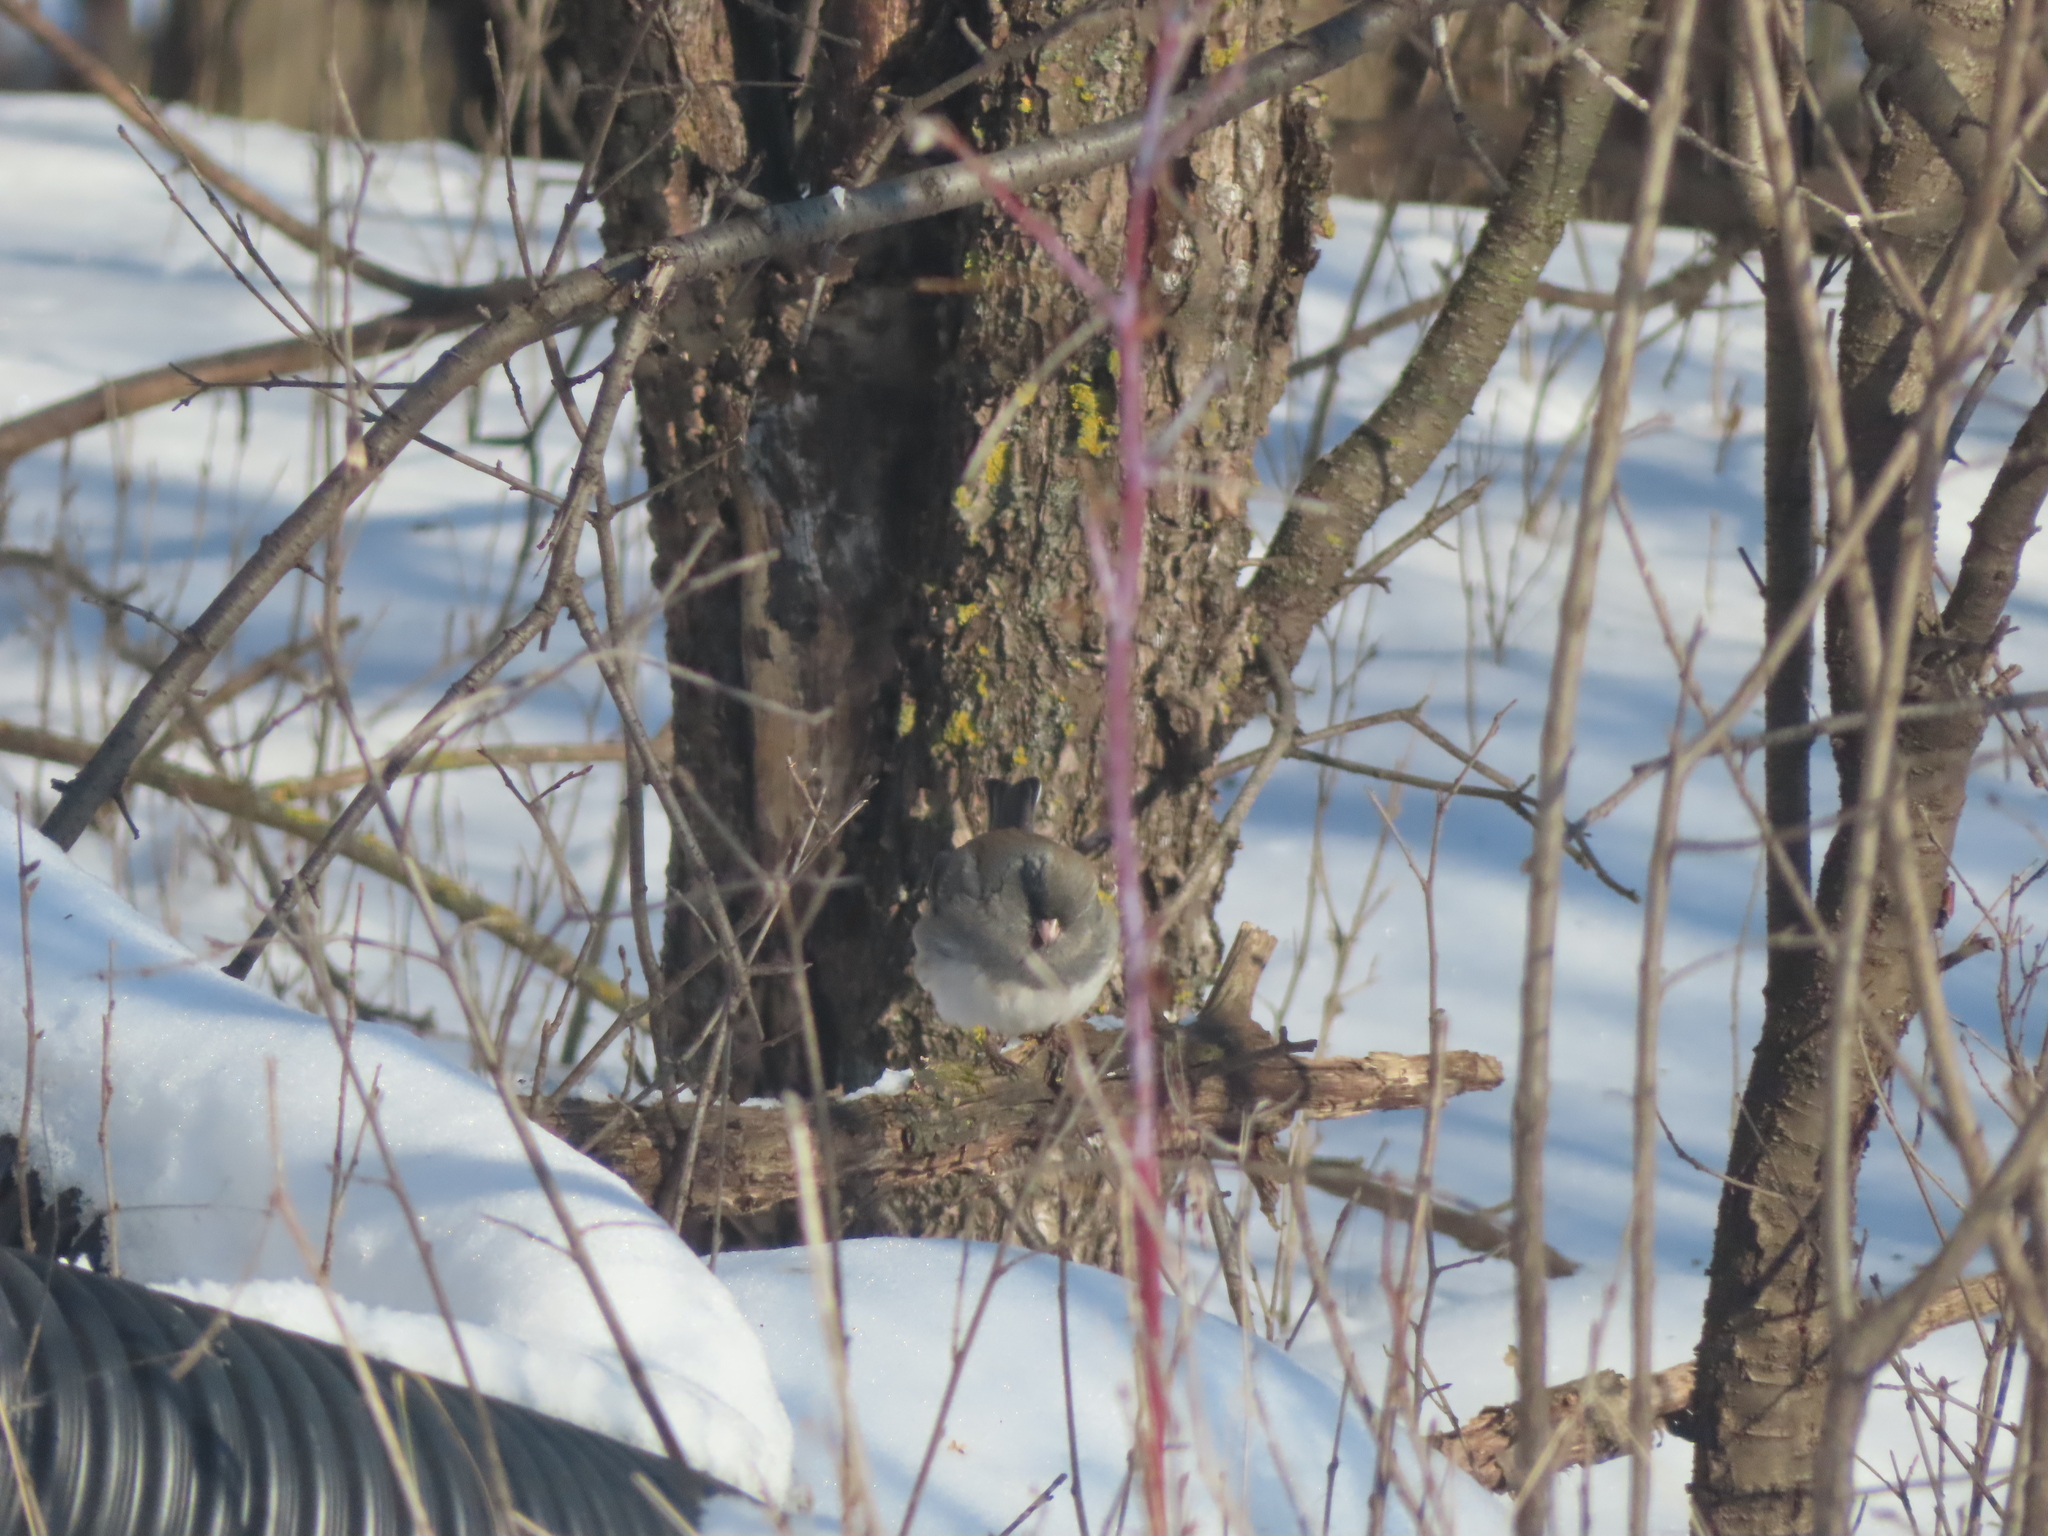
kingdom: Animalia
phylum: Chordata
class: Aves
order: Passeriformes
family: Passerellidae
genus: Junco
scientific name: Junco hyemalis
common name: Dark-eyed junco
